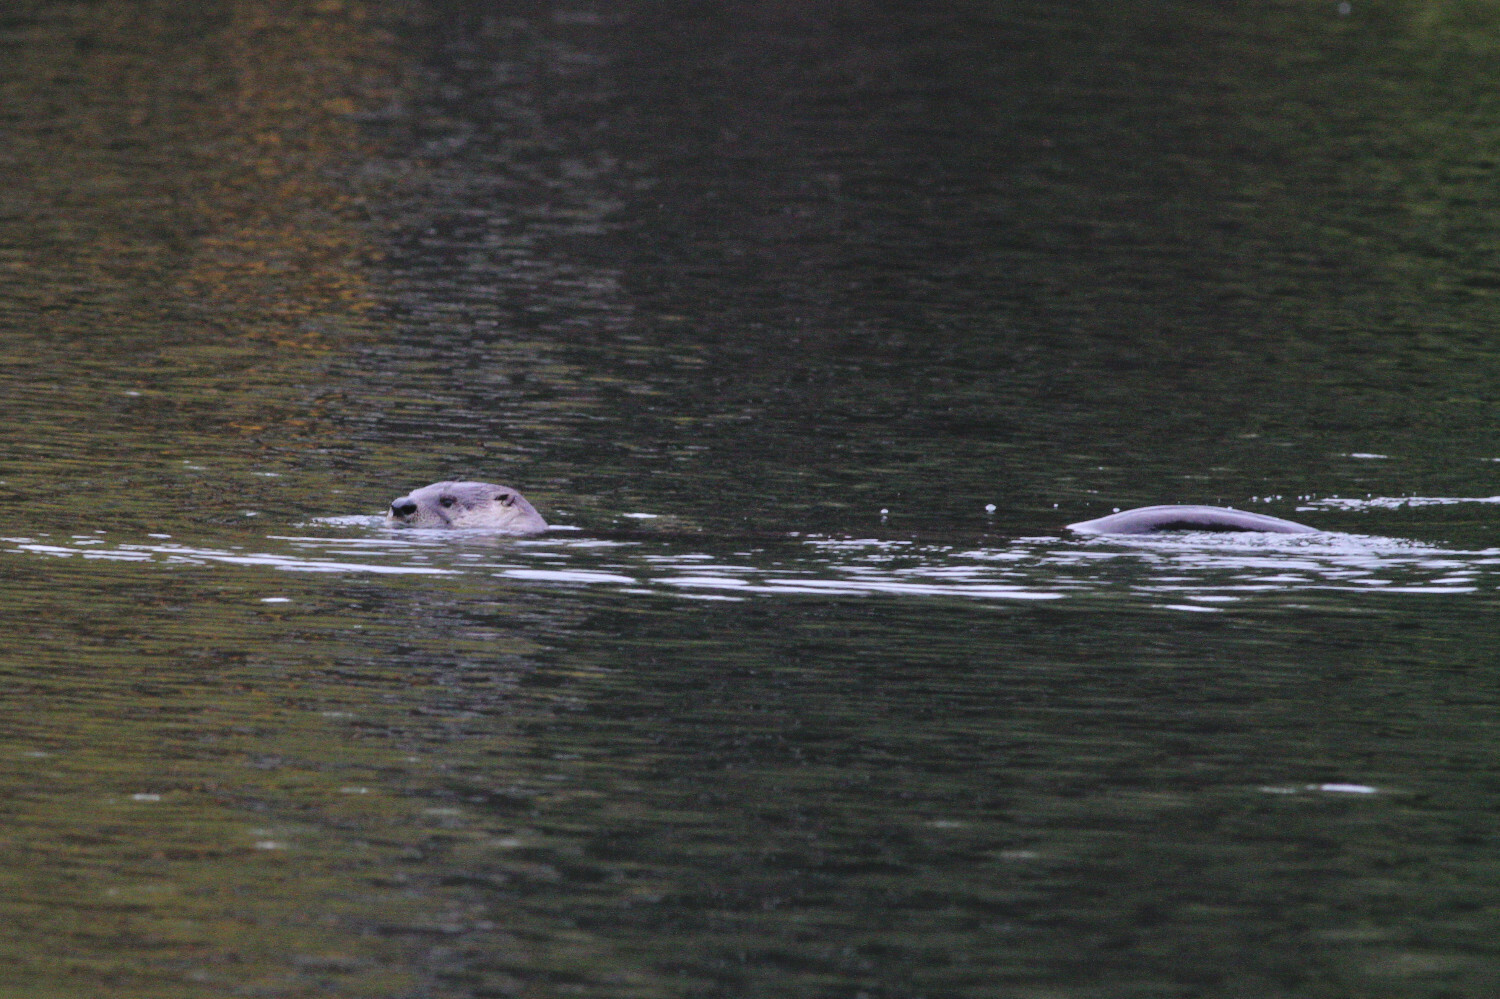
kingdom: Animalia
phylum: Chordata
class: Mammalia
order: Carnivora
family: Mustelidae
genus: Lontra
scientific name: Lontra canadensis
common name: North american river otter
